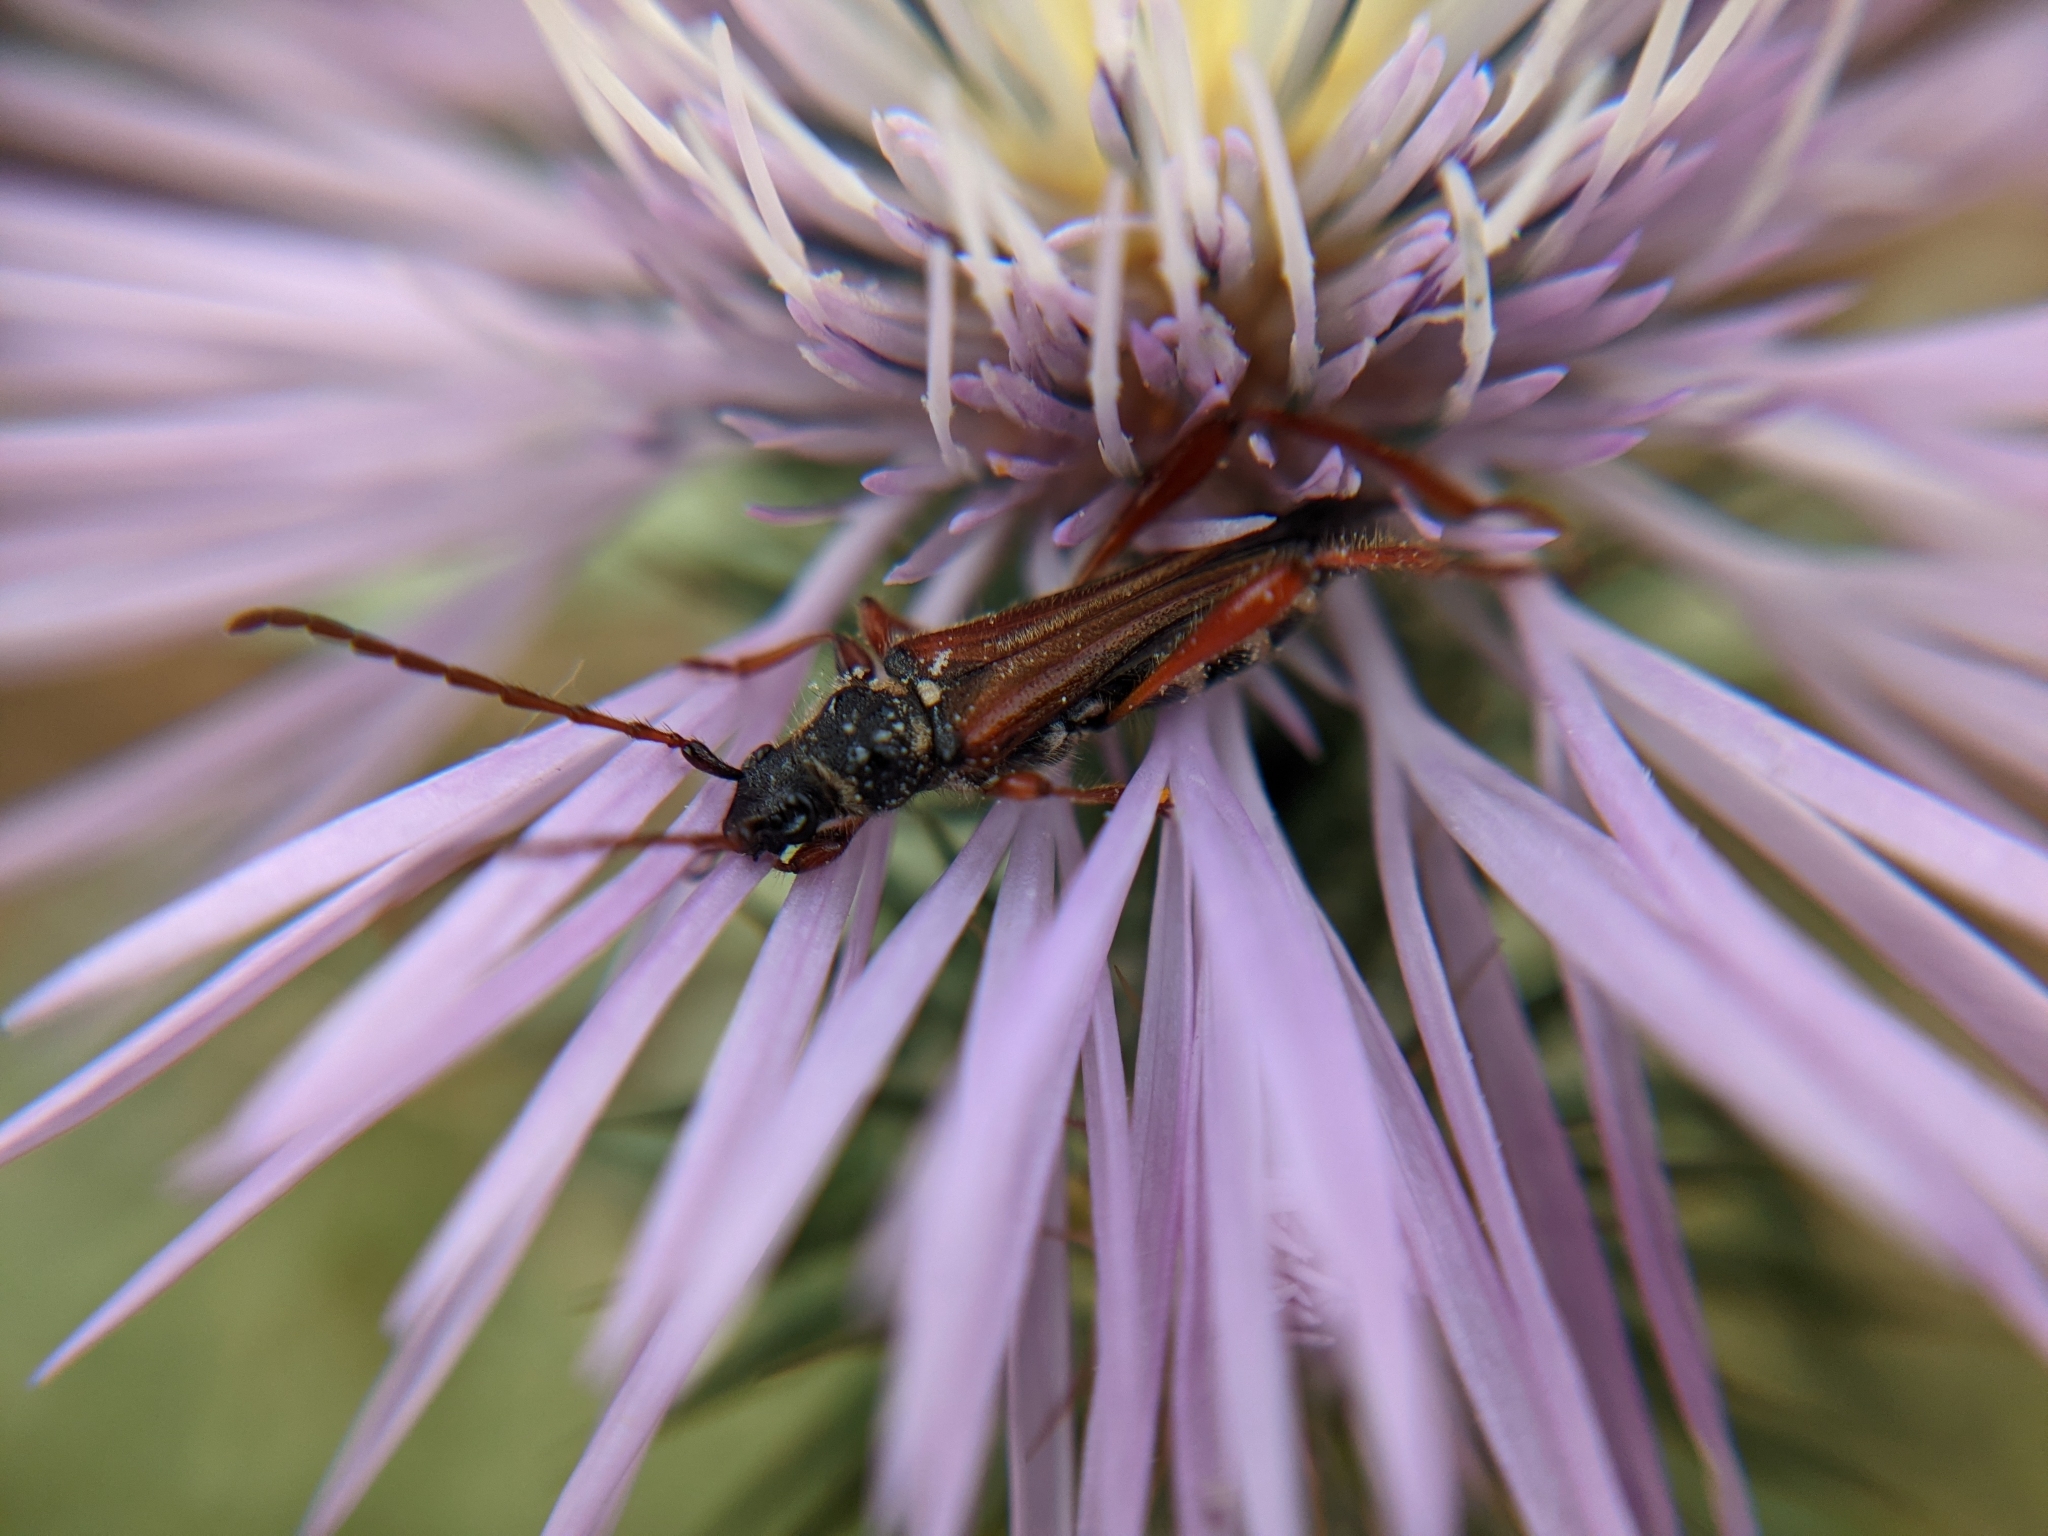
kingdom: Animalia
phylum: Arthropoda
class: Insecta
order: Coleoptera
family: Cerambycidae
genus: Stenopterus
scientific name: Stenopterus rufus
